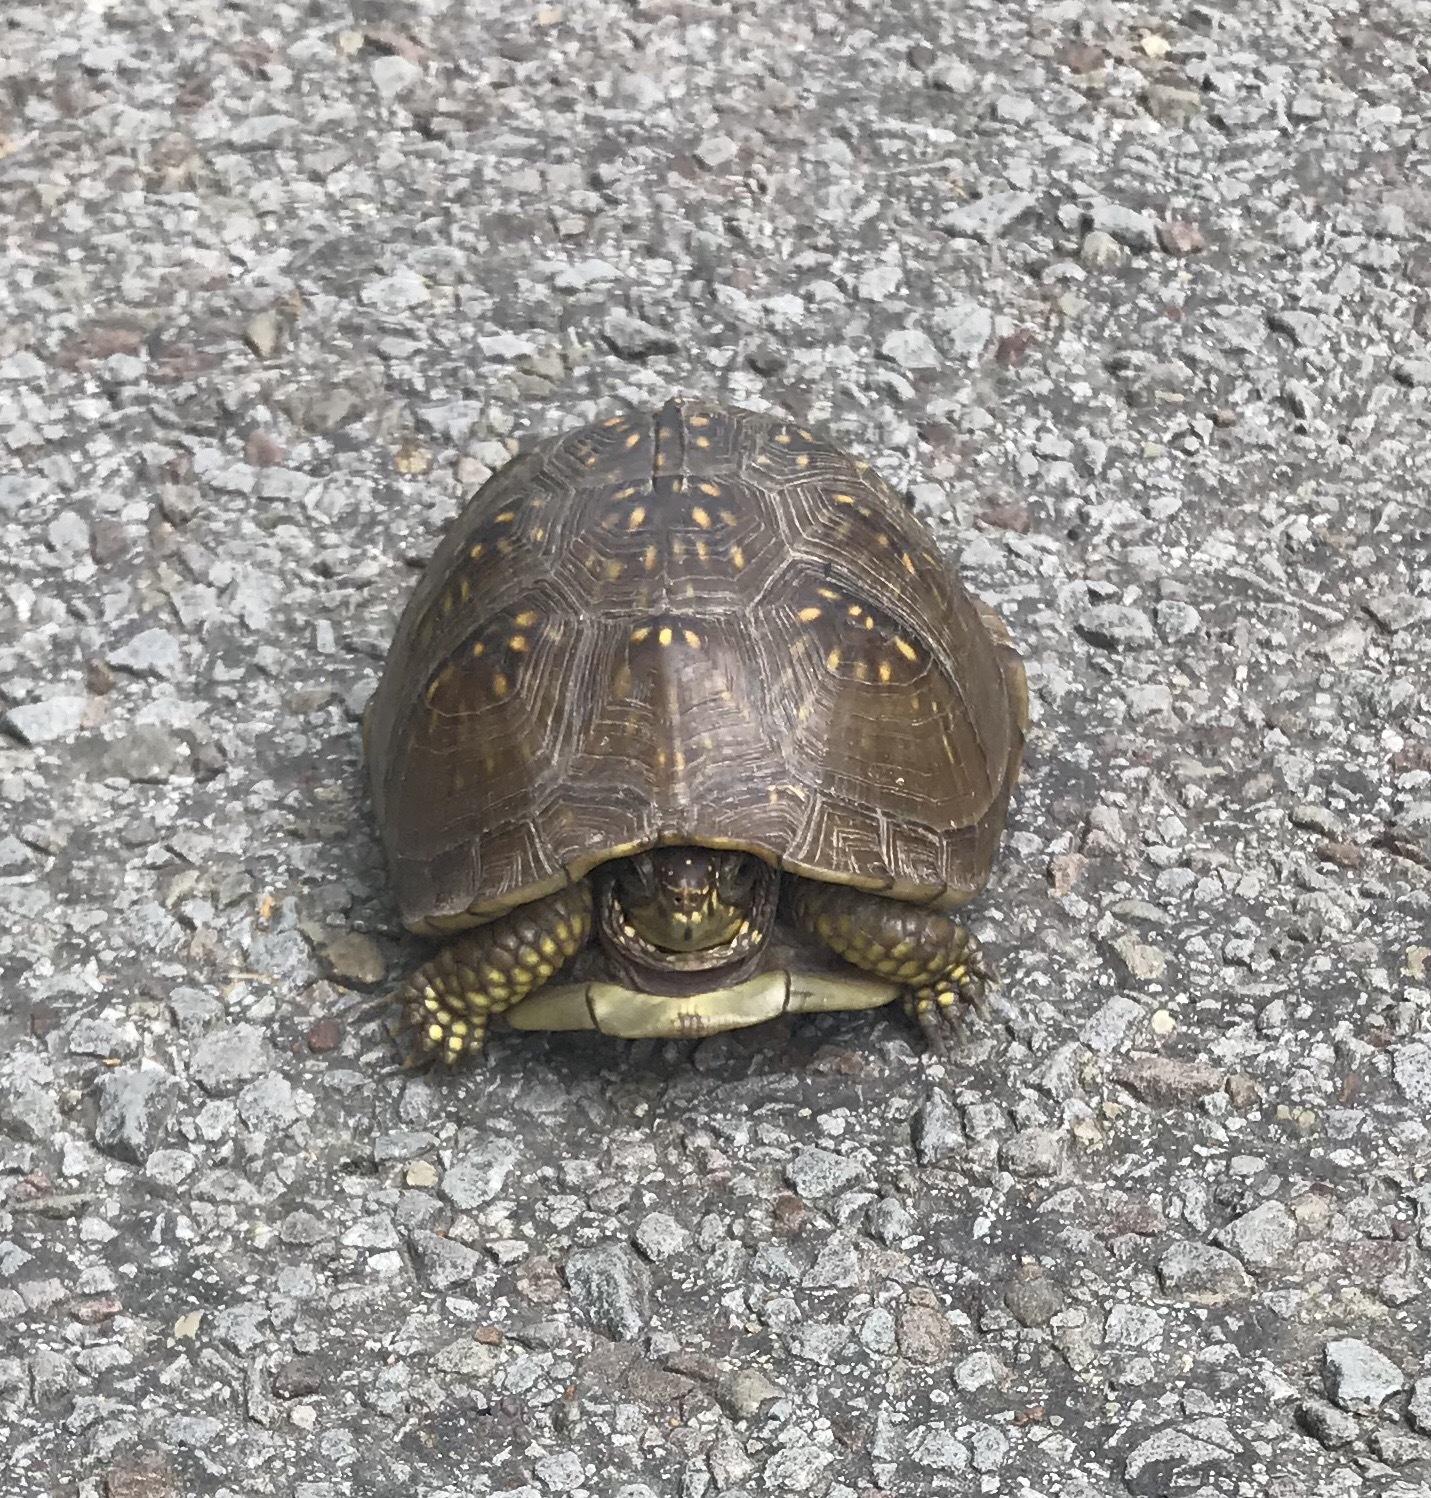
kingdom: Animalia
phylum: Chordata
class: Testudines
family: Emydidae
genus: Terrapene
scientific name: Terrapene carolina
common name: Common box turtle
